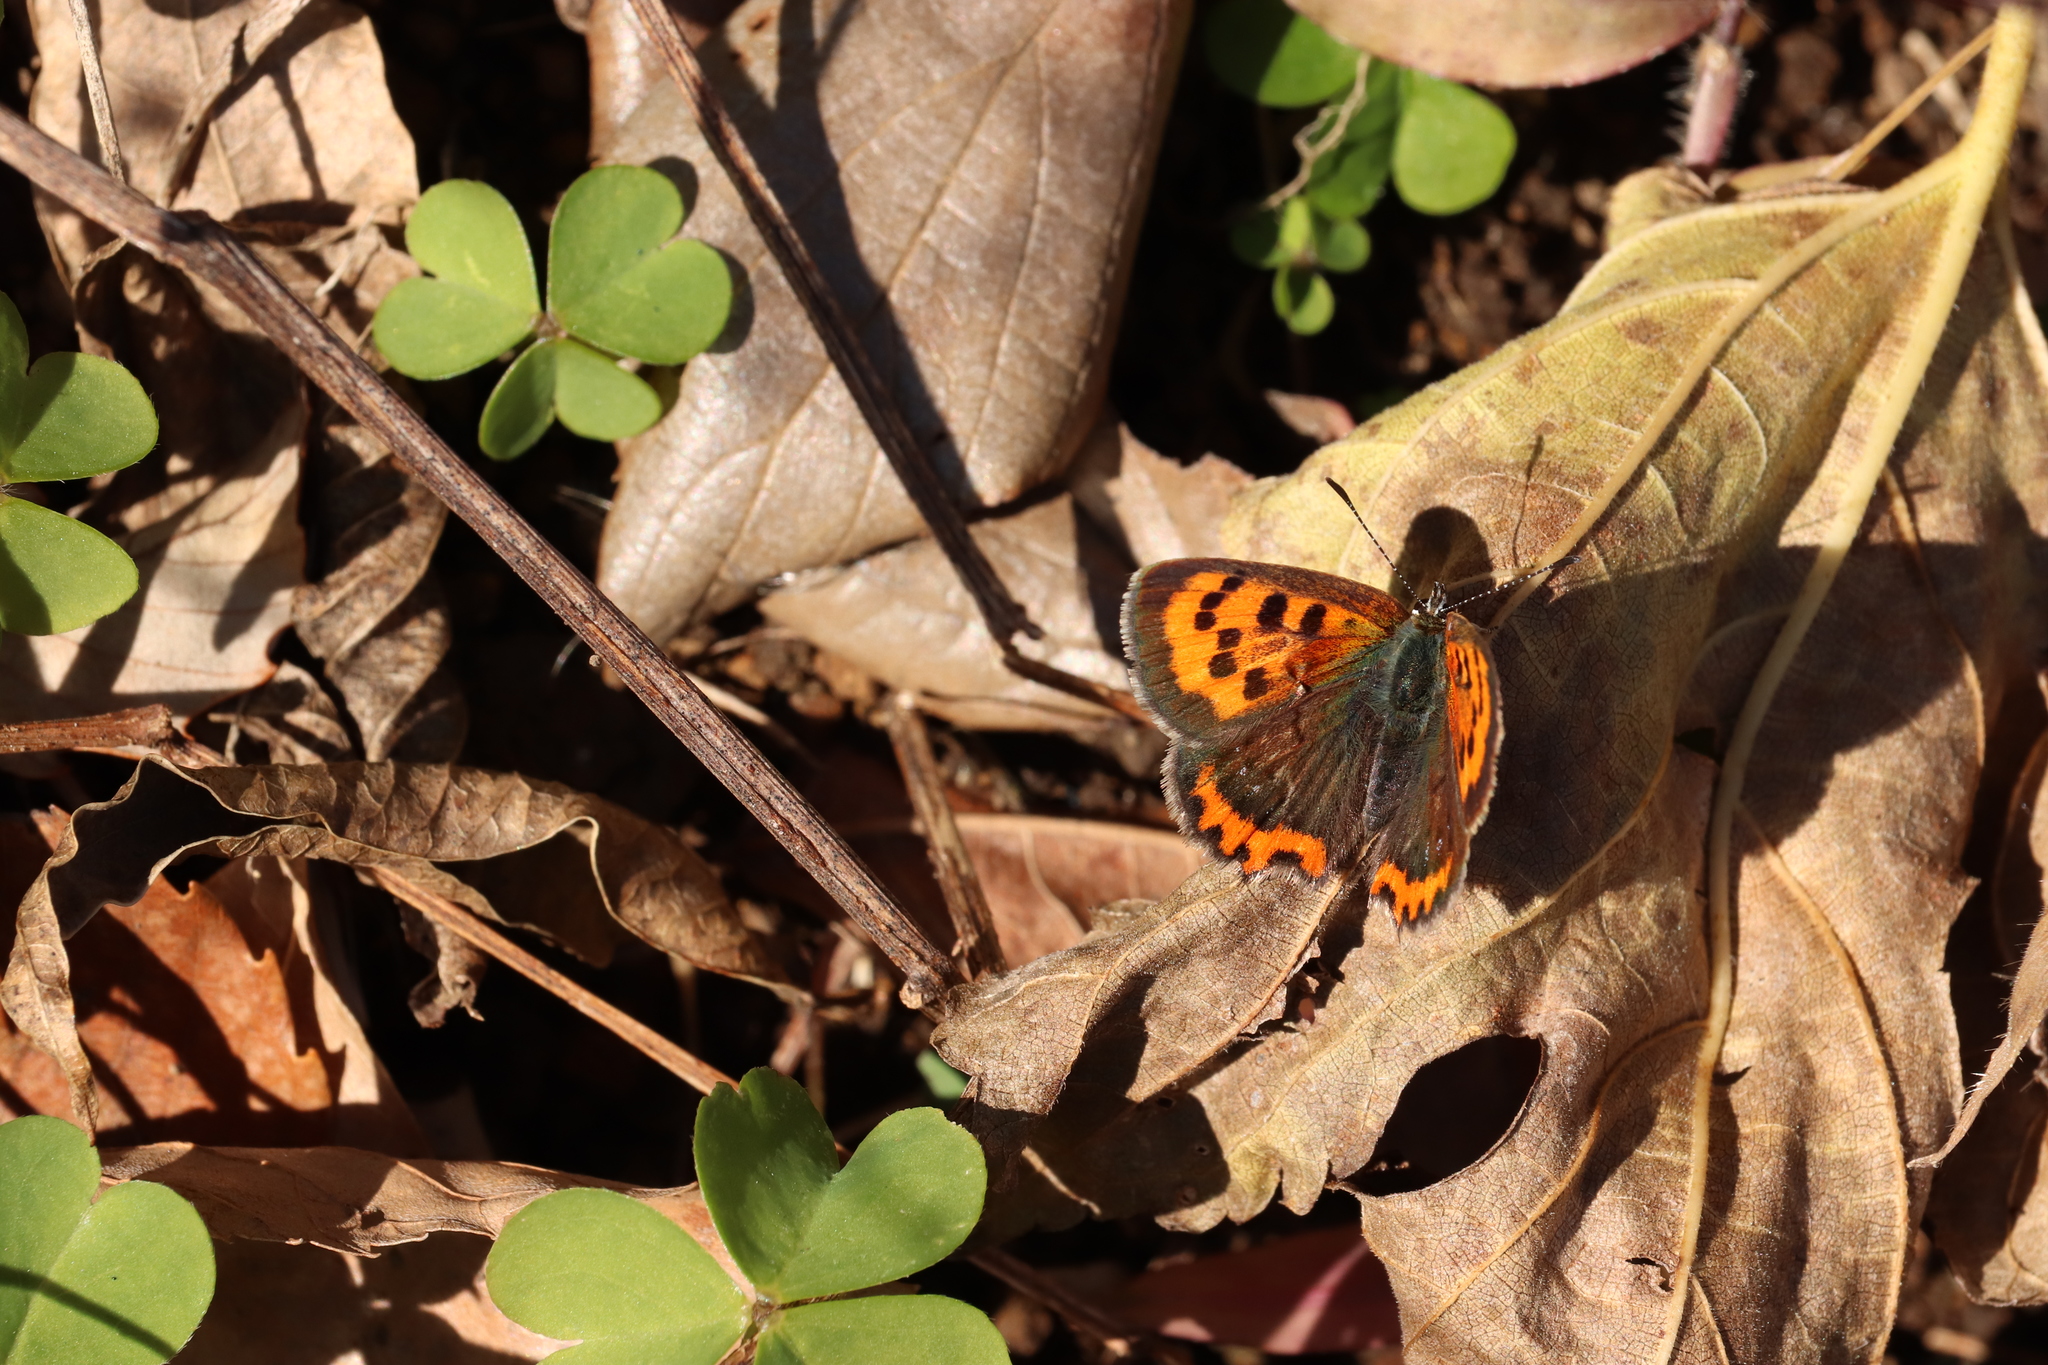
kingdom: Animalia
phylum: Arthropoda
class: Insecta
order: Lepidoptera
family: Lycaenidae
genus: Lycaena
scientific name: Lycaena phlaeas
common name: Small copper
